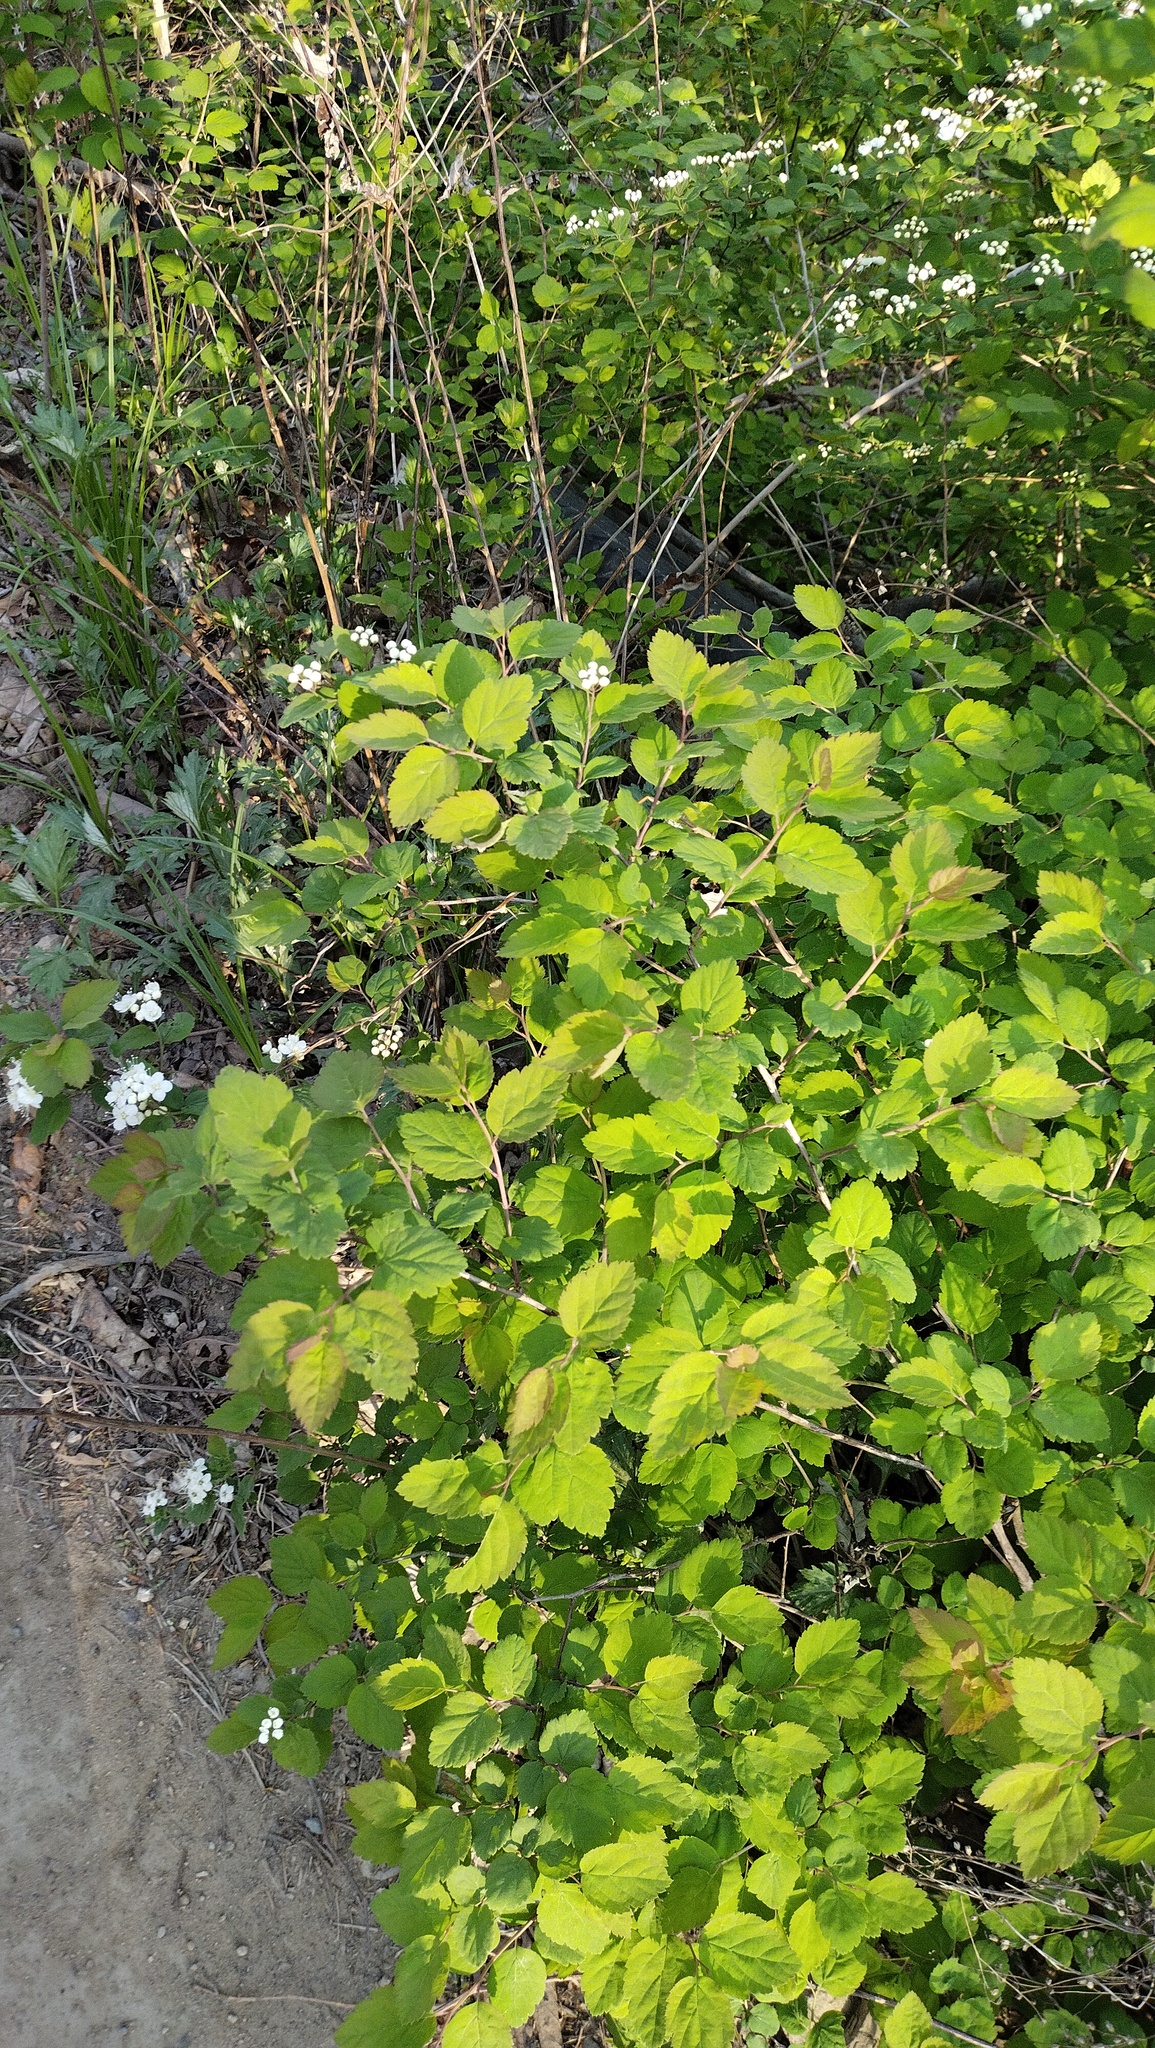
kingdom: Plantae
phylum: Tracheophyta
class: Magnoliopsida
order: Rosales
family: Rosaceae
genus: Spiraea
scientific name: Spiraea chamaedryfolia
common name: Elm-leaved spiraea
